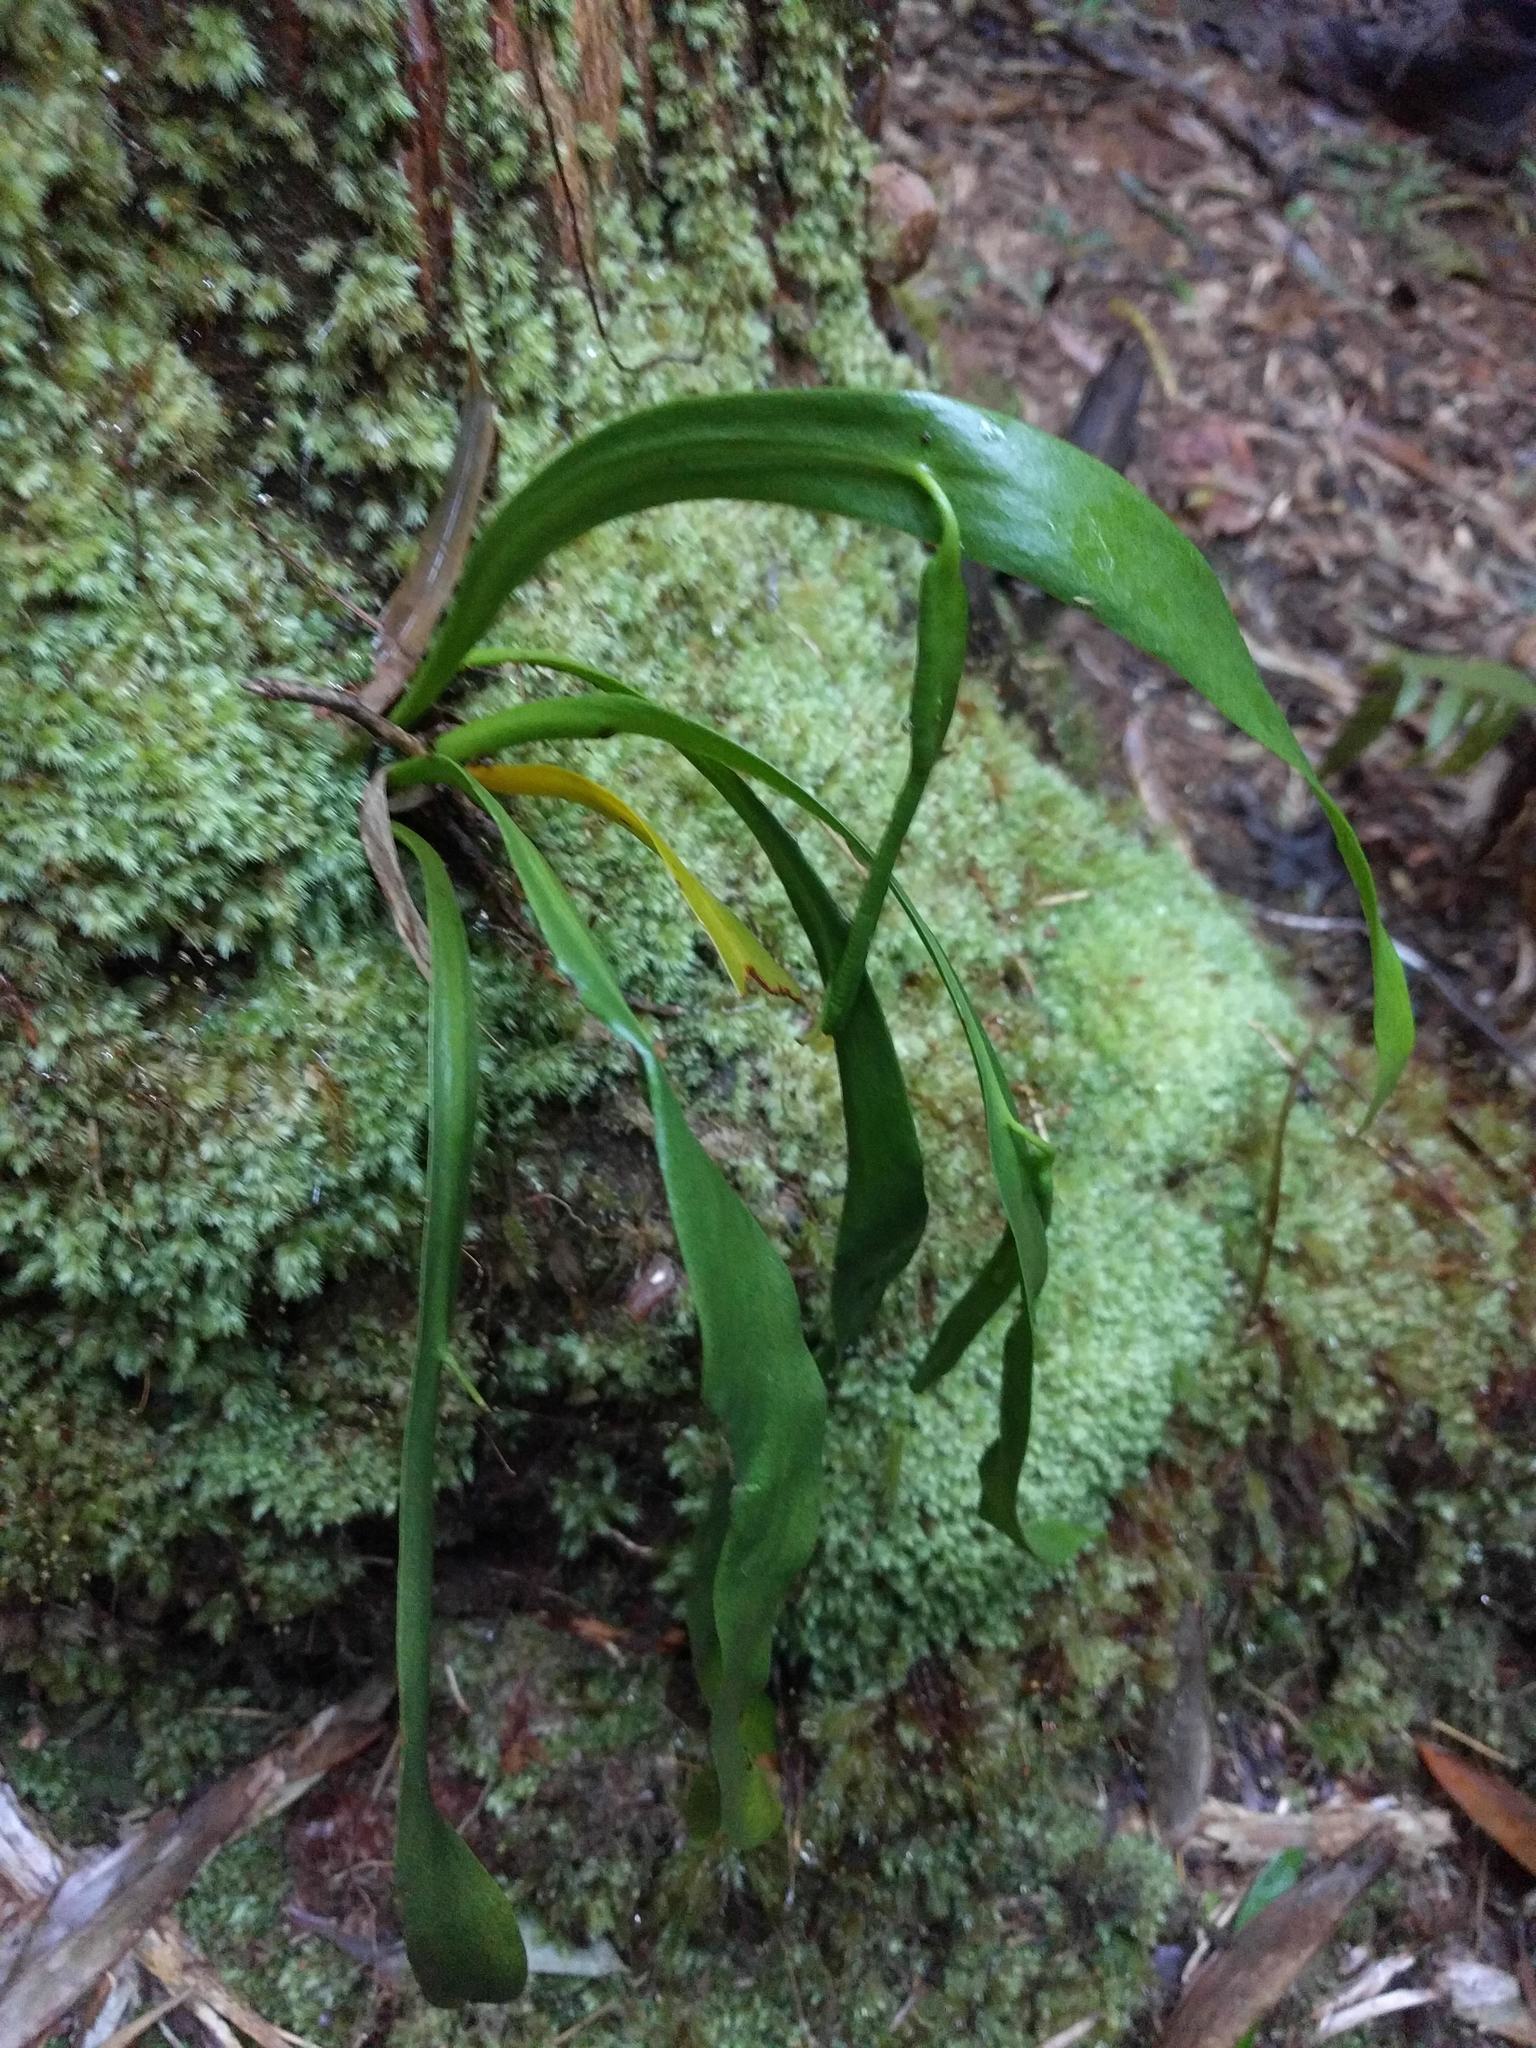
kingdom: Plantae
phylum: Tracheophyta
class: Polypodiopsida
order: Ophioglossales
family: Ophioglossaceae
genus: Ophioderma
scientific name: Ophioderma falcatum
